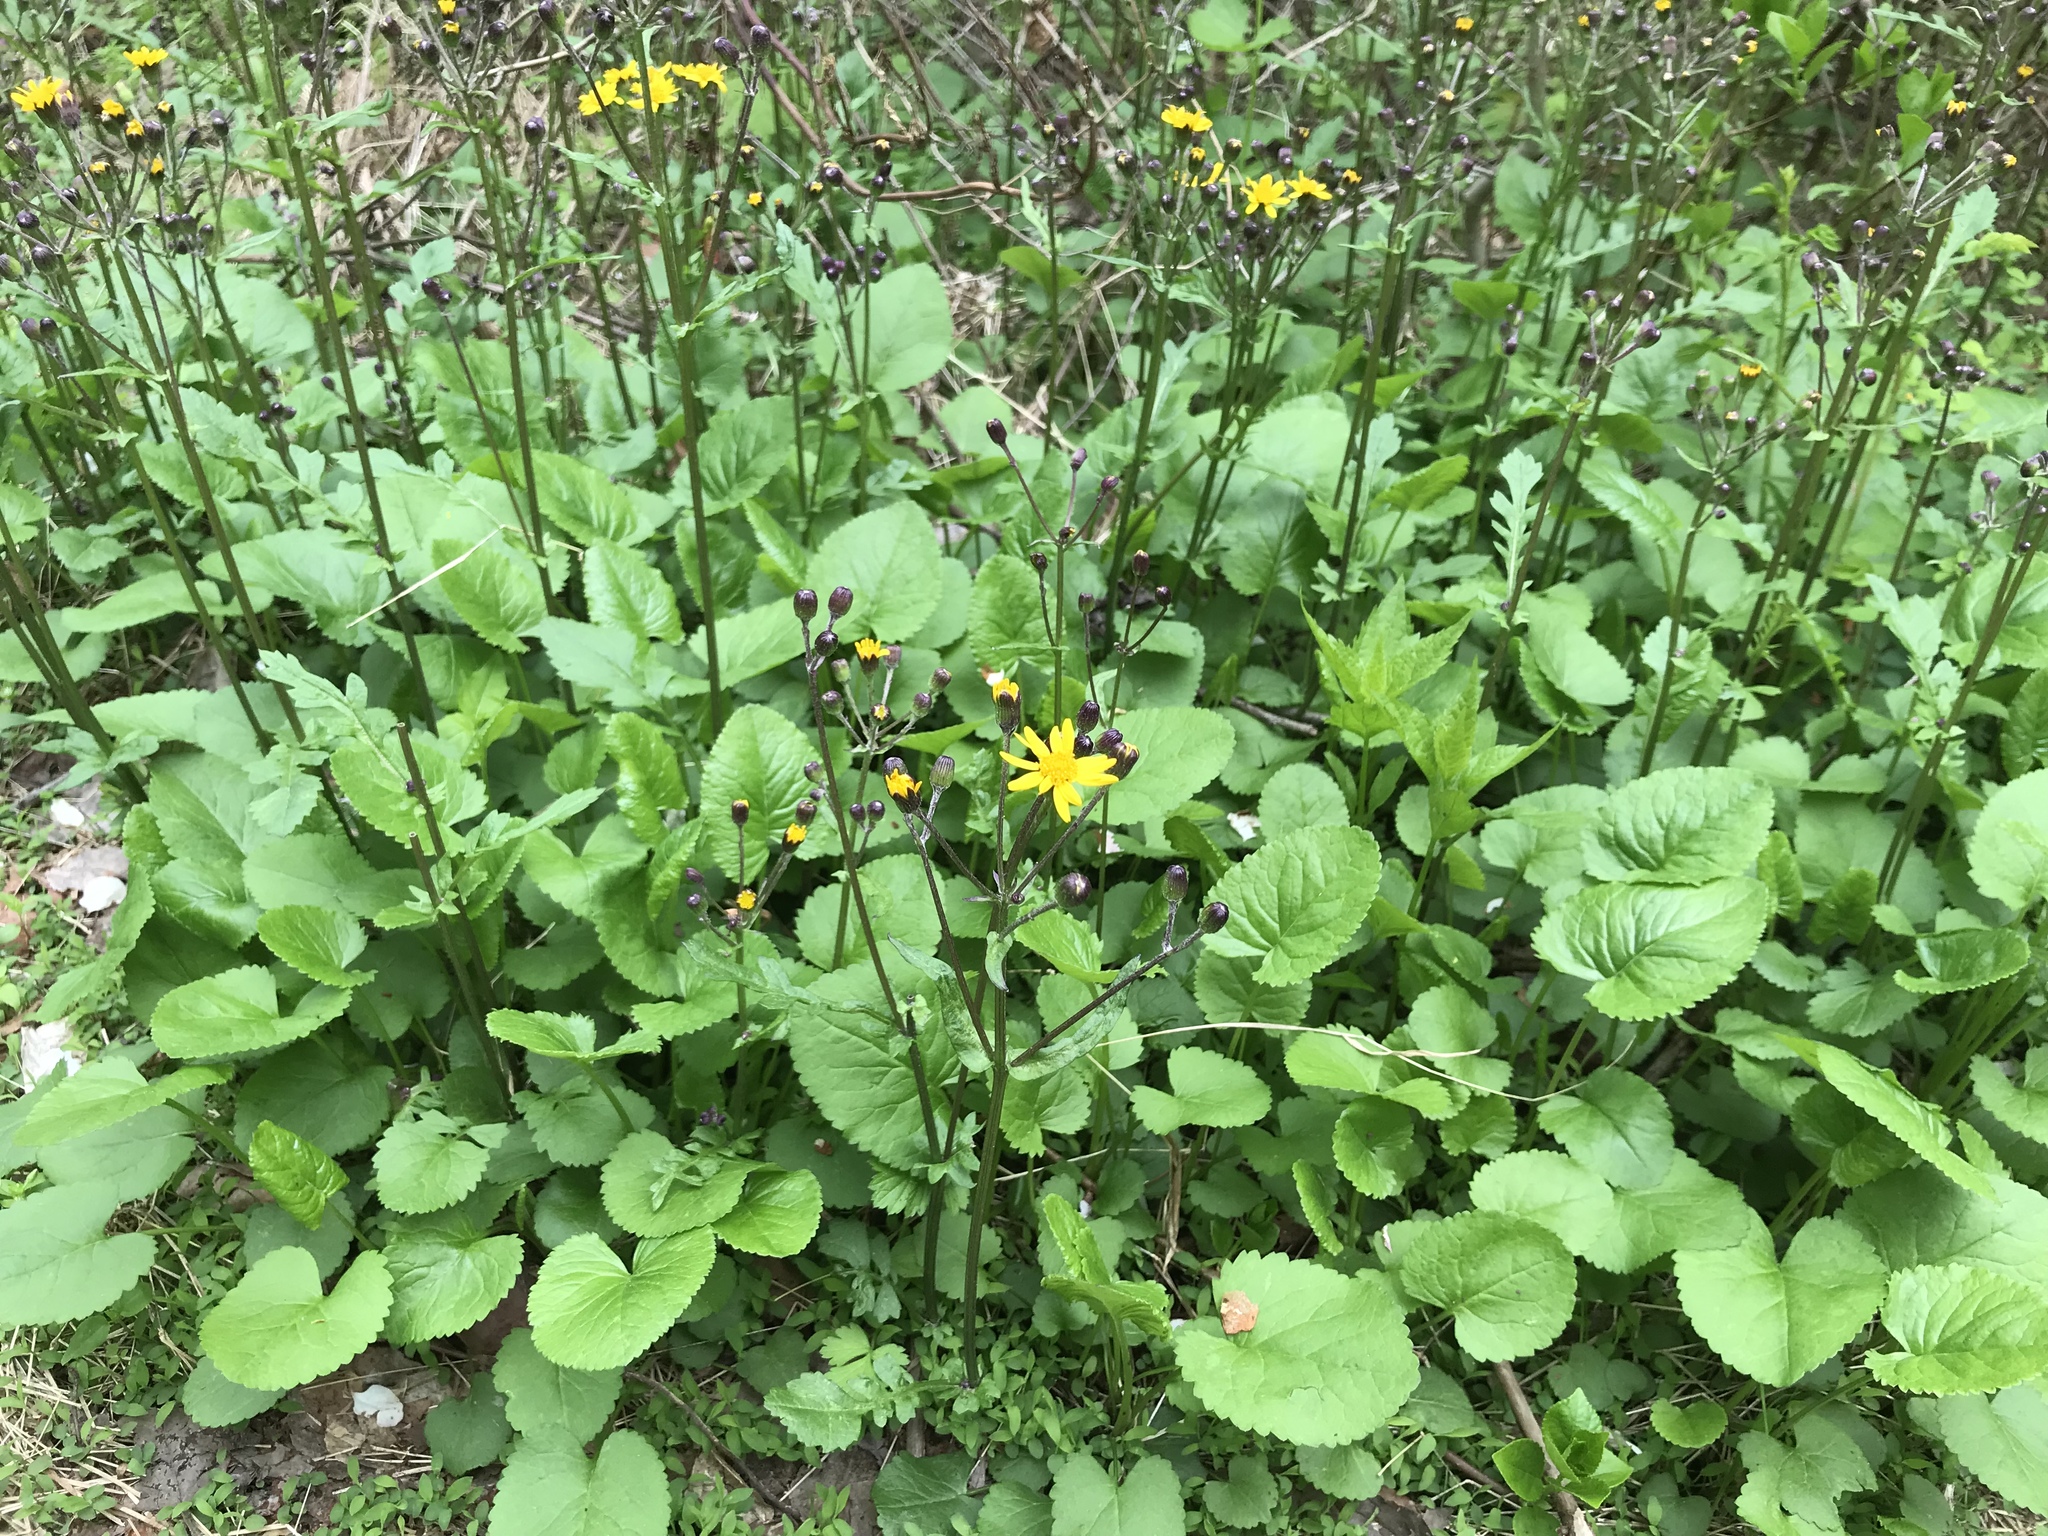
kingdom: Plantae
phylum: Tracheophyta
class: Magnoliopsida
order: Asterales
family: Asteraceae
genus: Packera
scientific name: Packera aurea
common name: Golden groundsel
